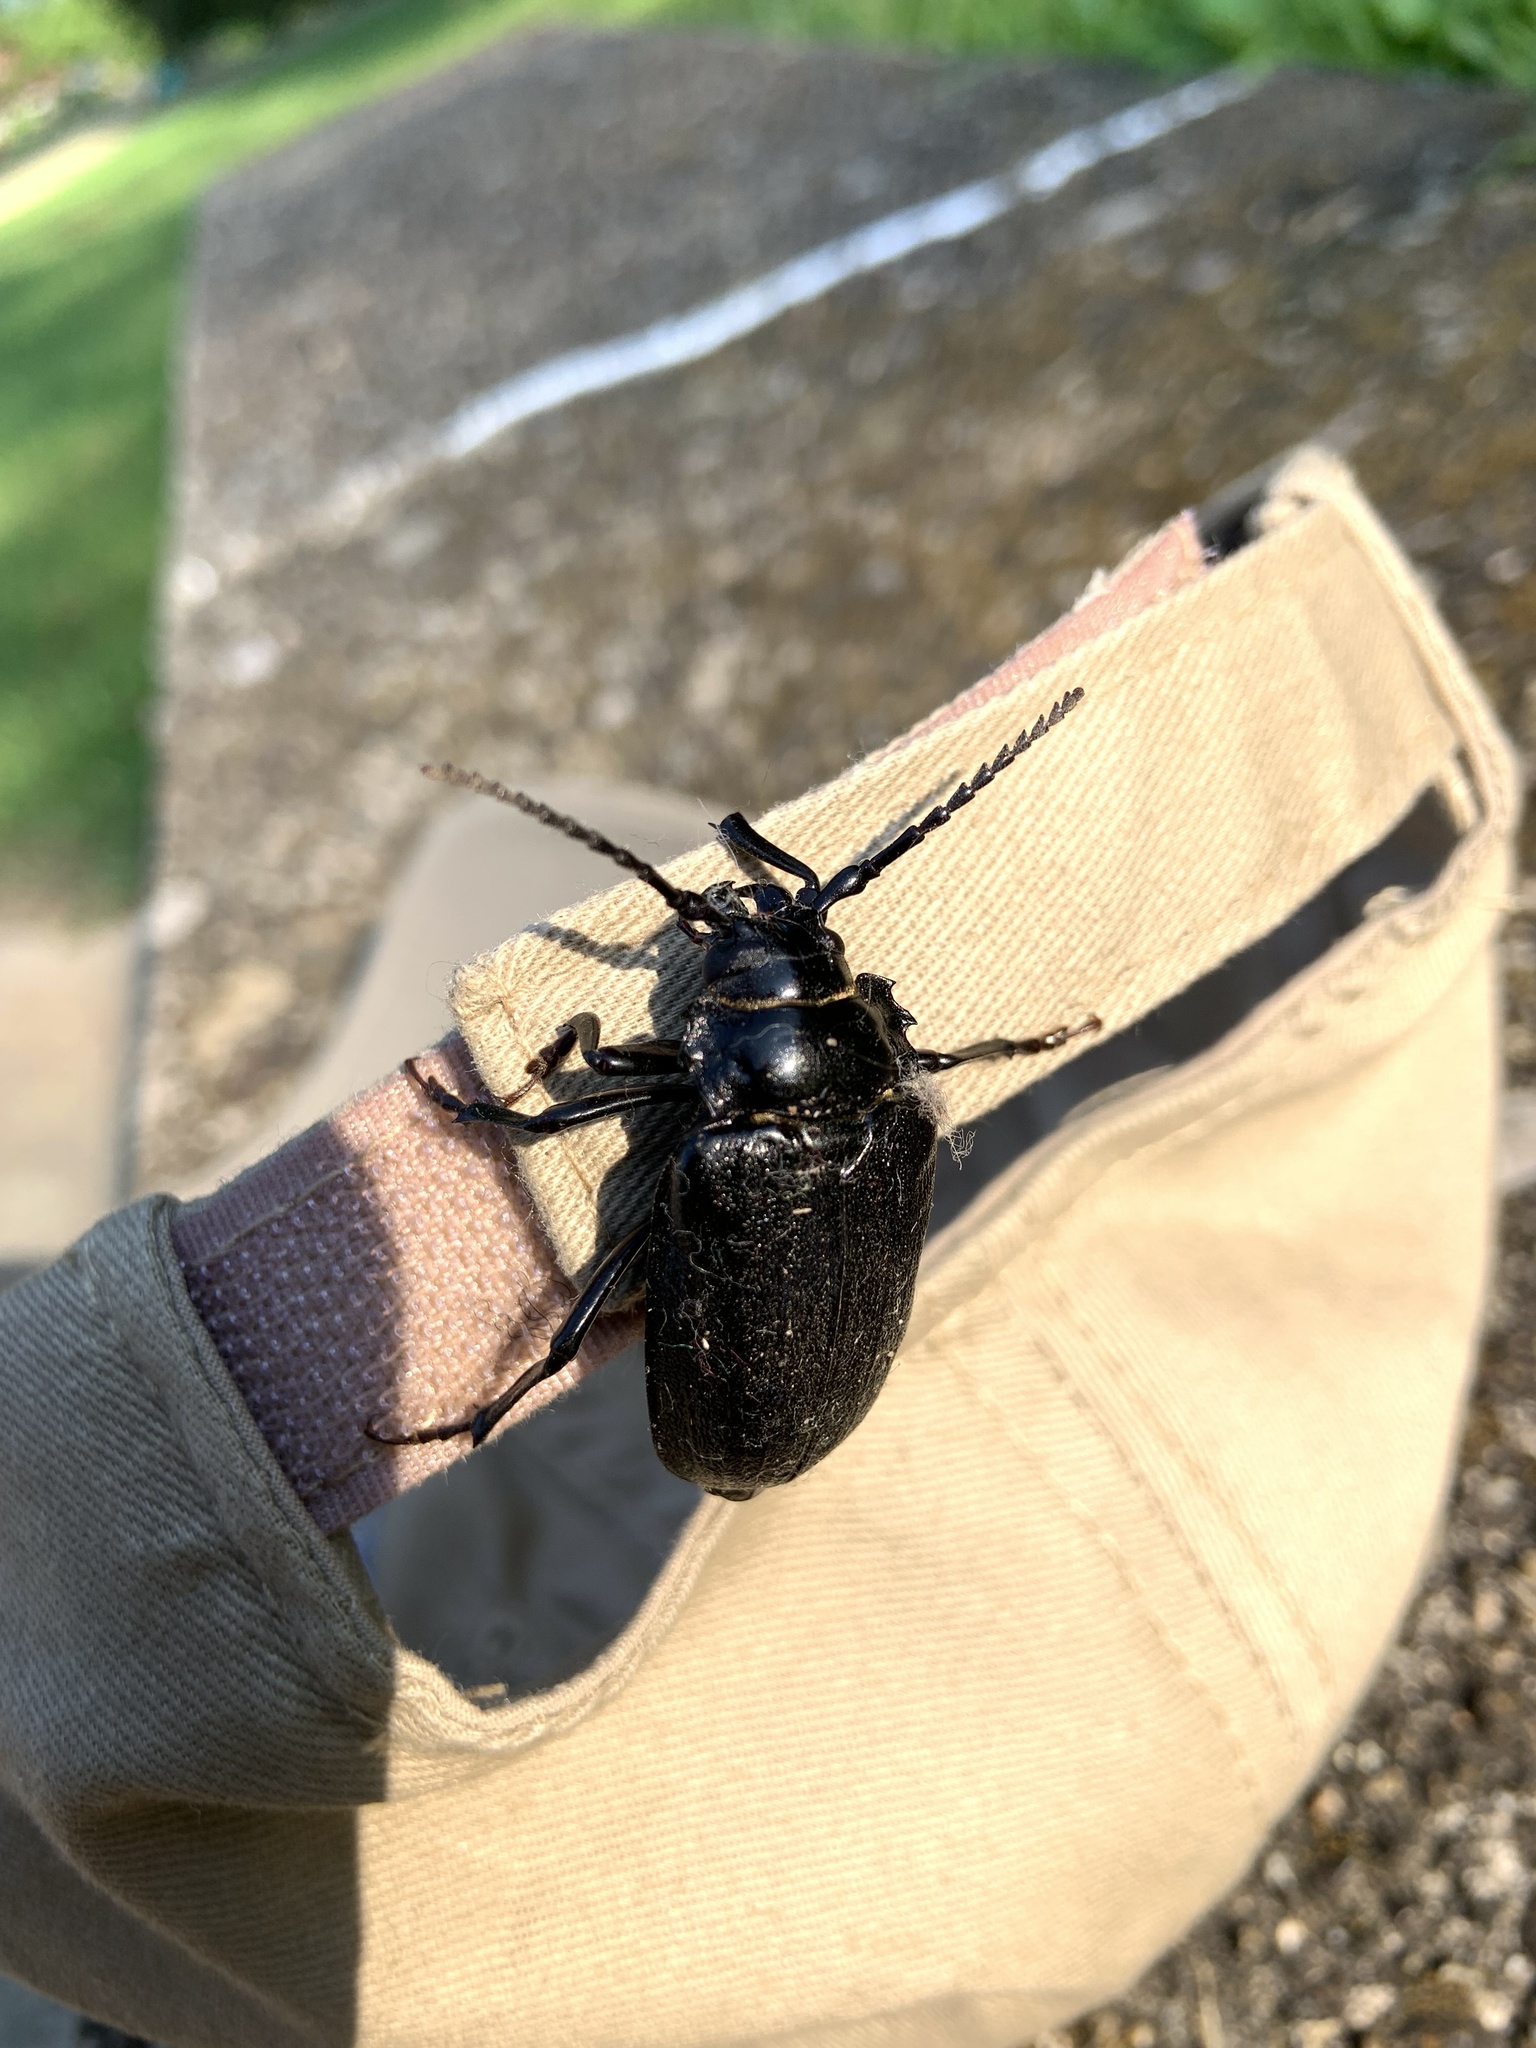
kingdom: Animalia
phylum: Arthropoda
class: Insecta
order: Coleoptera
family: Cerambycidae
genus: Prionus
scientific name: Prionus laticollis
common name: Broad necked prionus
